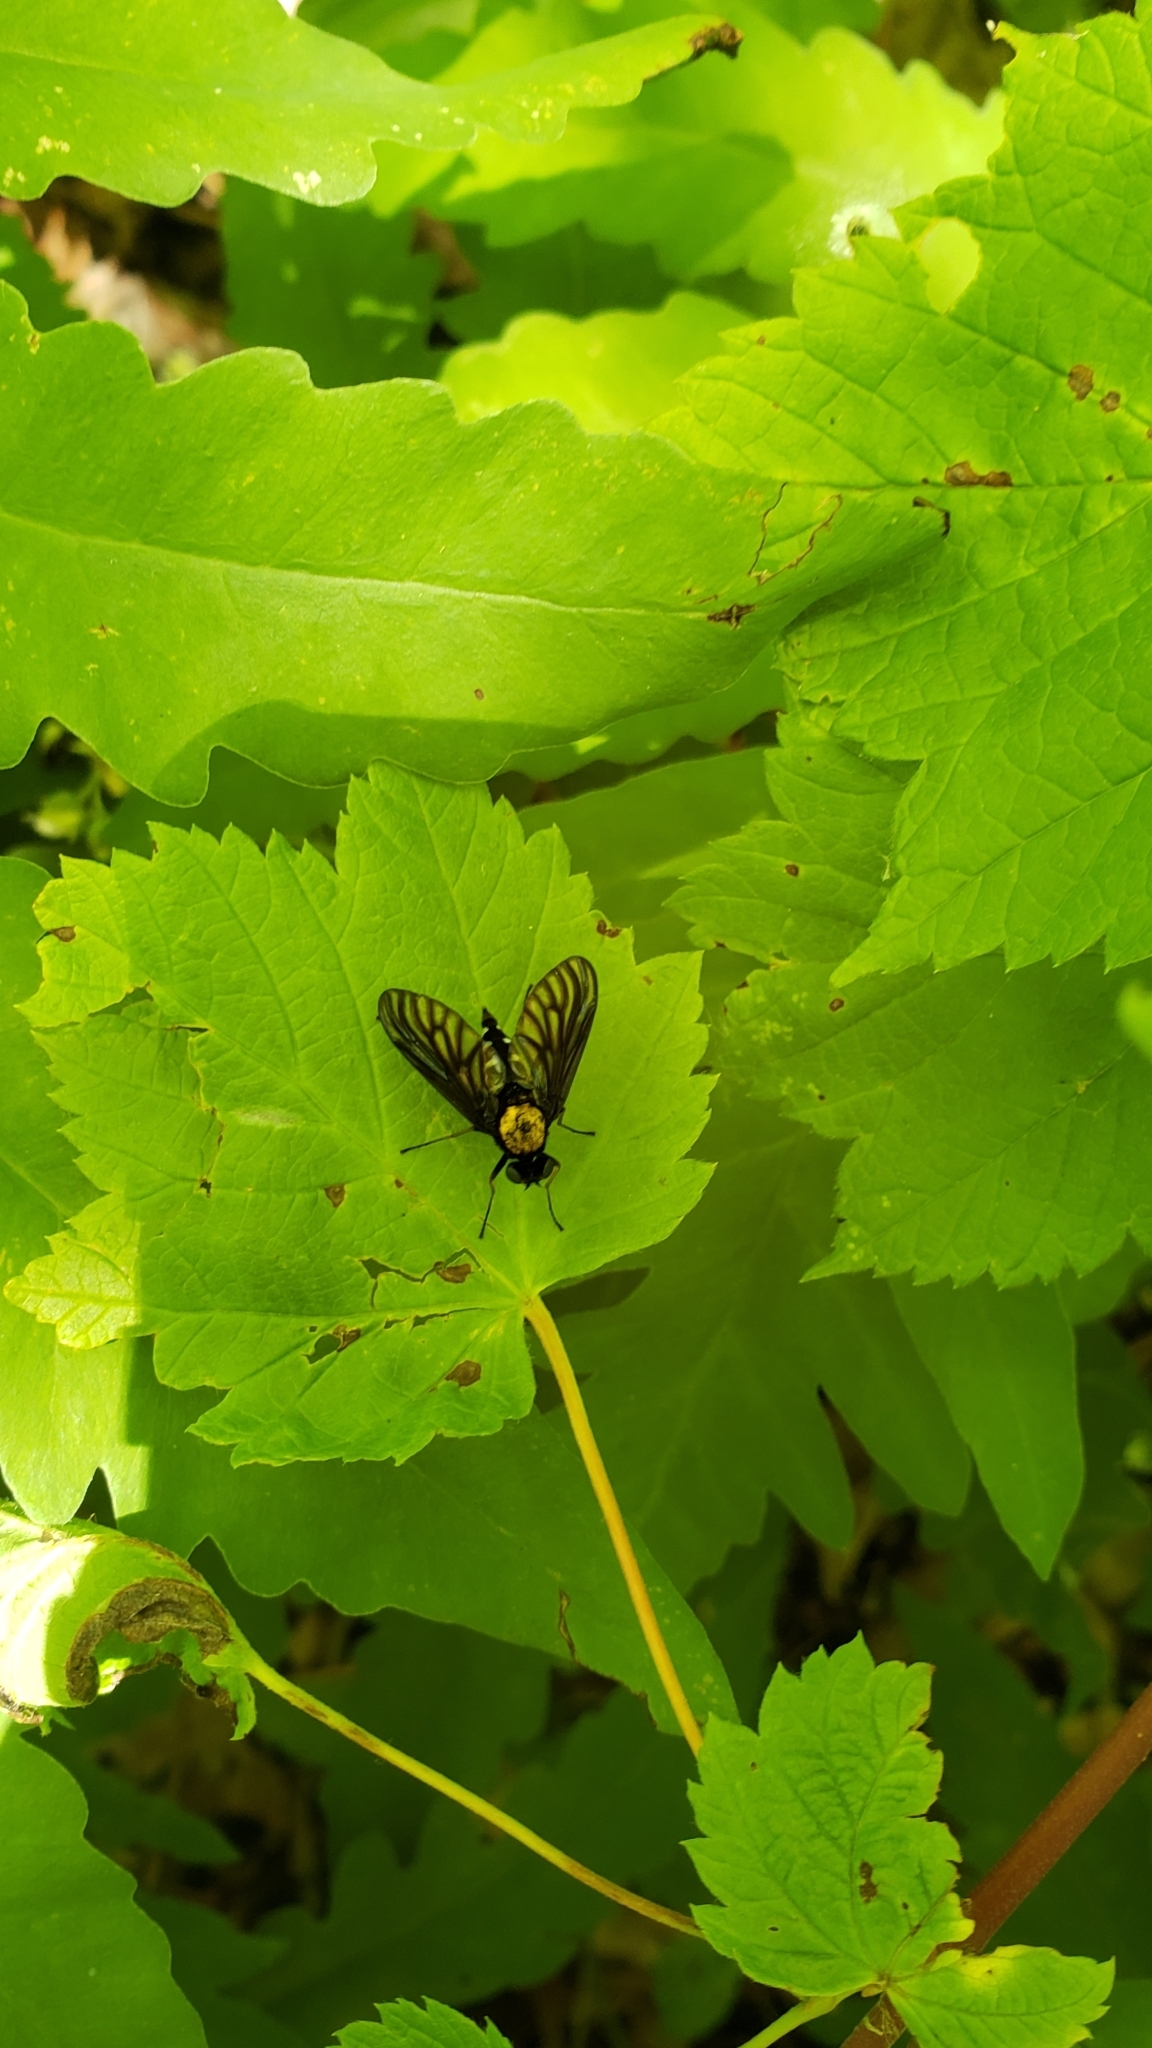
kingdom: Animalia
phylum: Arthropoda
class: Insecta
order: Diptera
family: Rhagionidae
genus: Chrysopilus
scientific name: Chrysopilus thoracicus
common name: Golden-backed snipe fly
